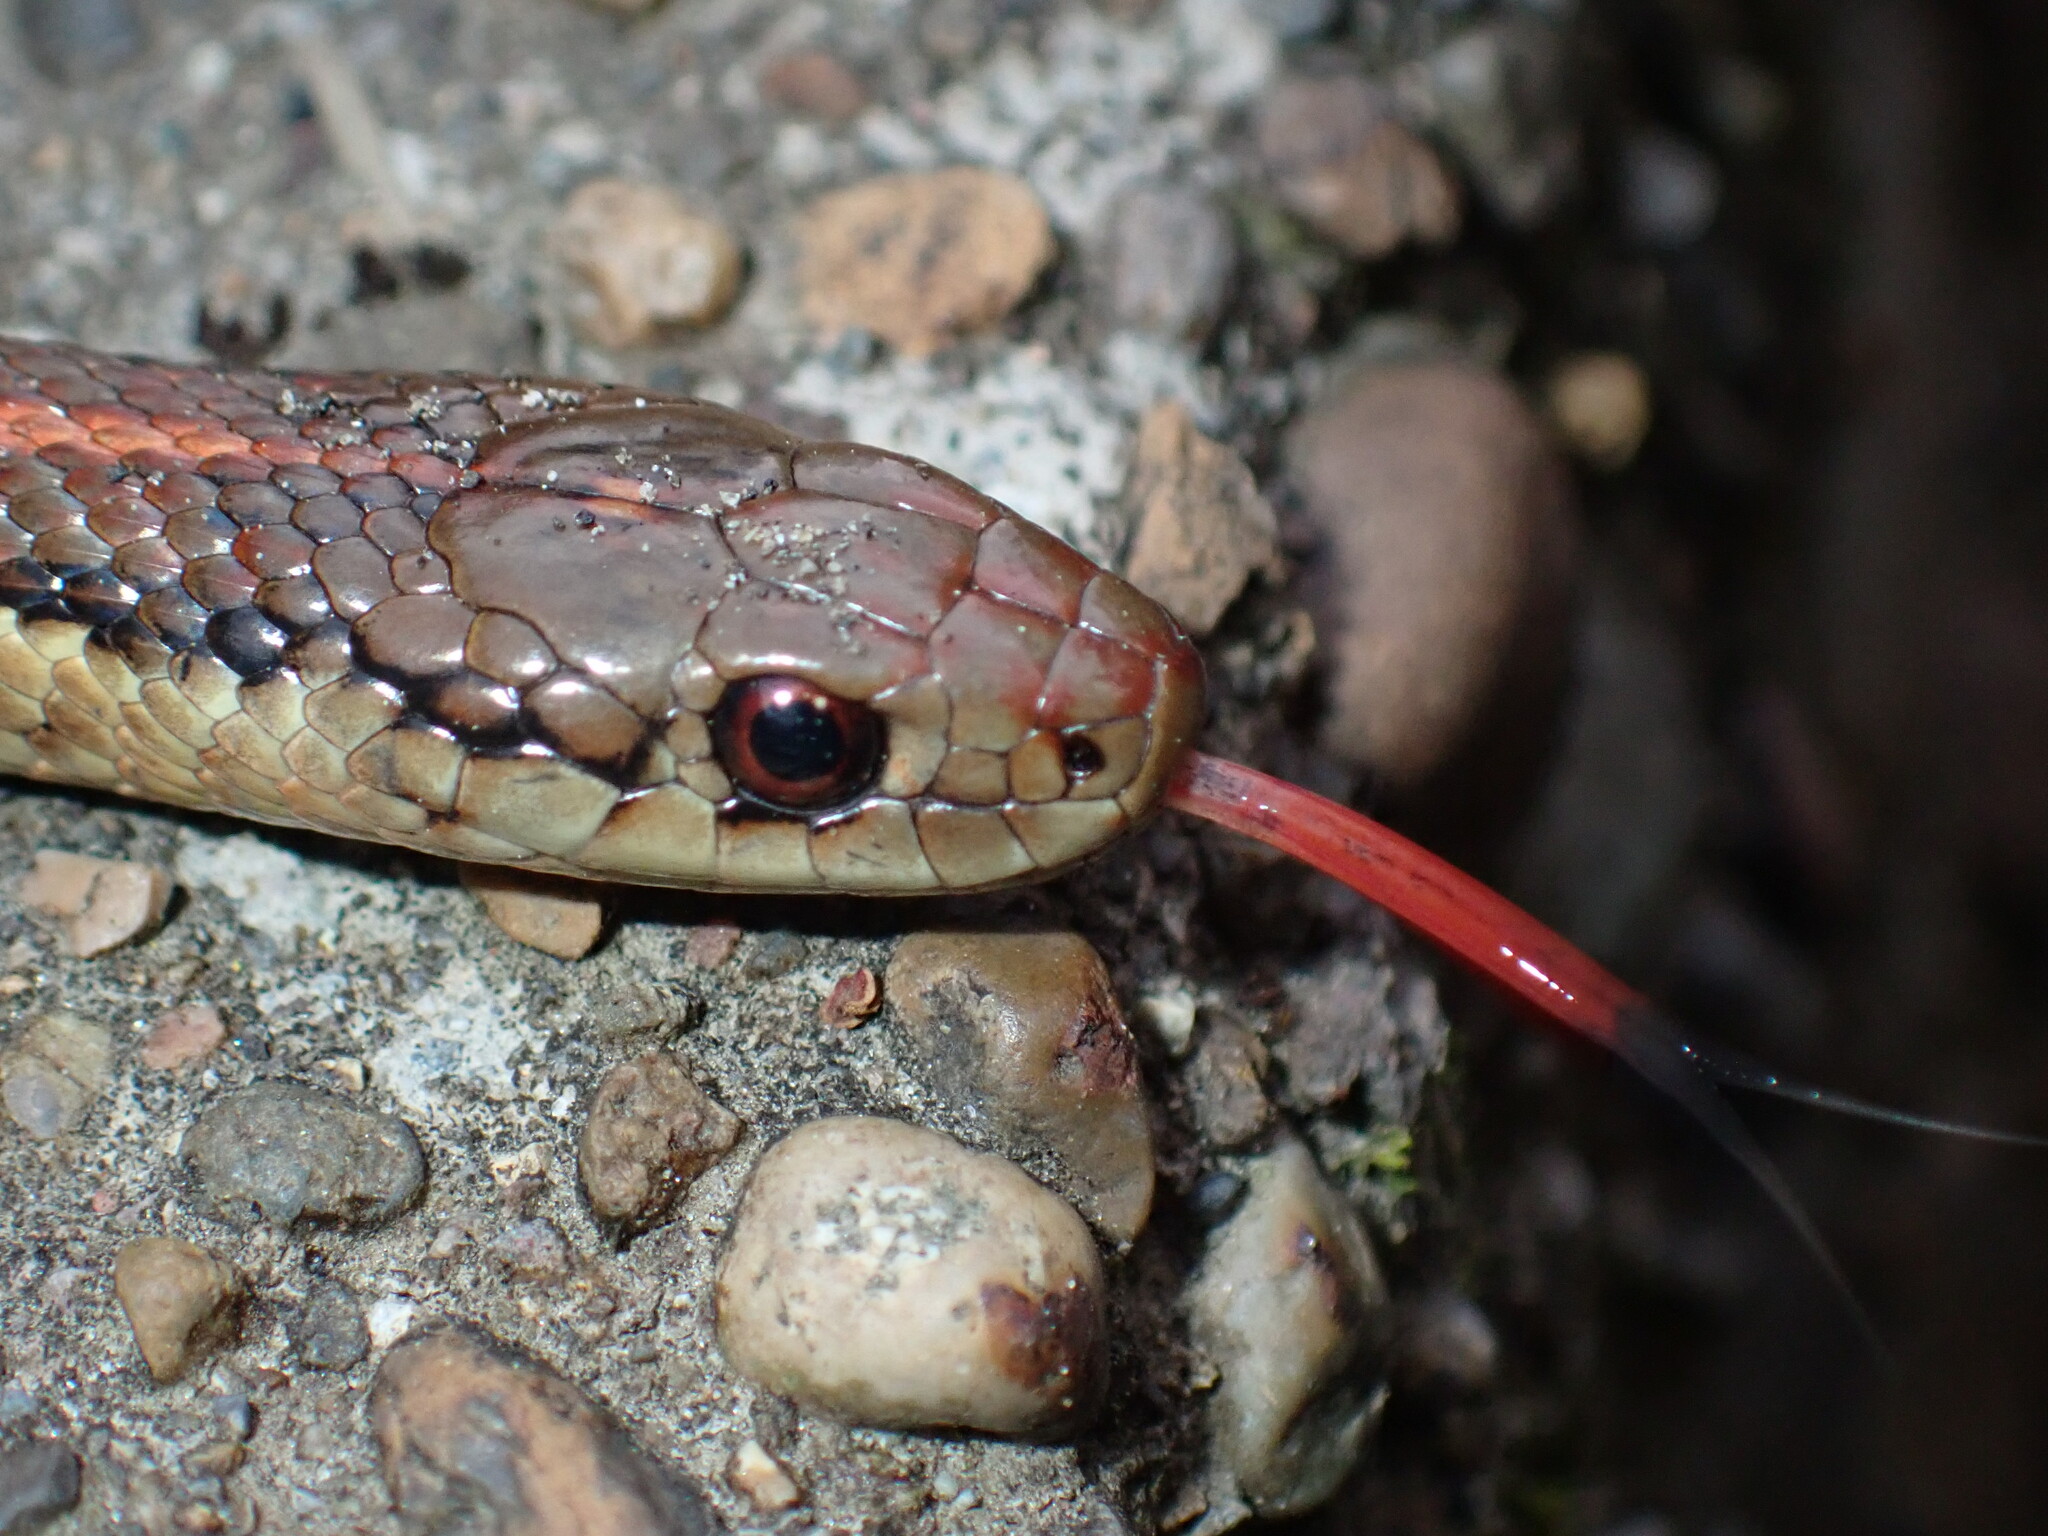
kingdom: Animalia
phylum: Chordata
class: Squamata
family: Colubridae
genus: Thamnophis
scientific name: Thamnophis ordinoides
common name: Northwestern garter snake
